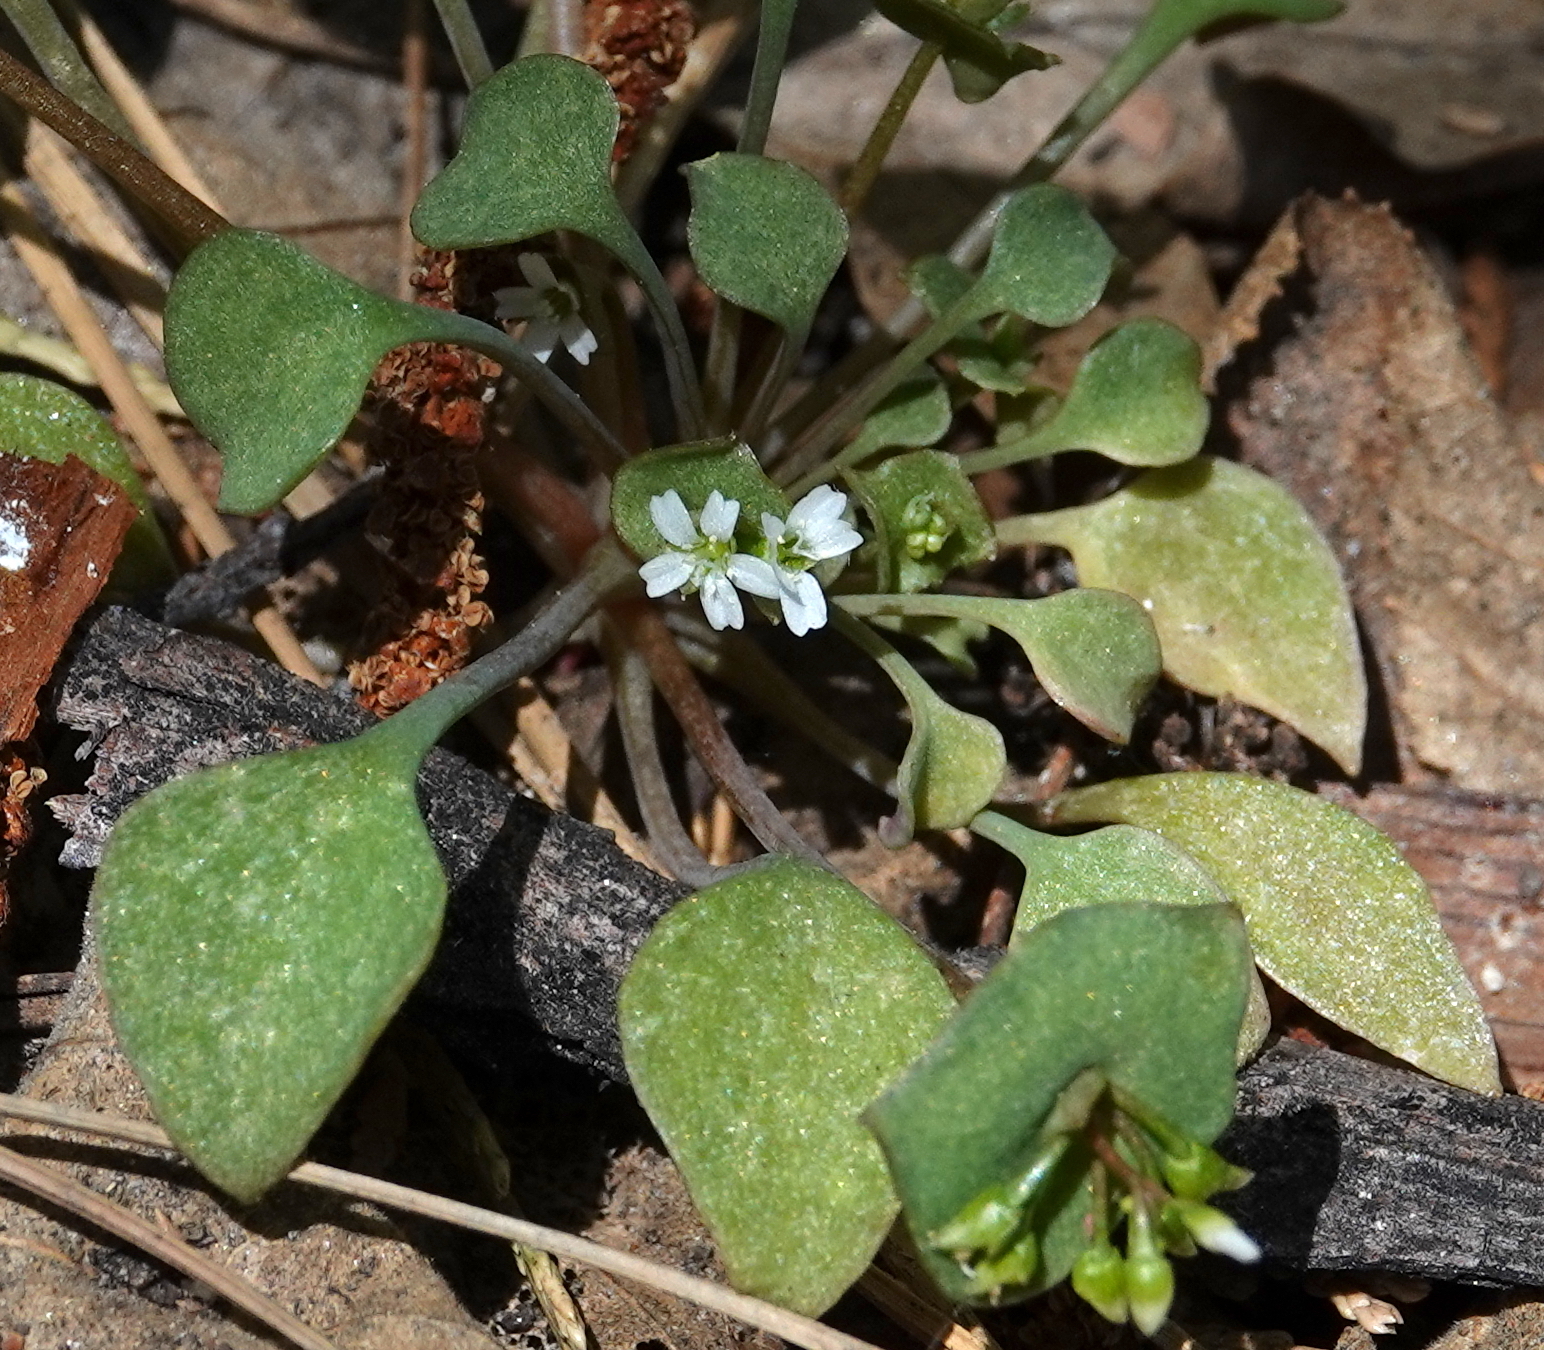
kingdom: Plantae
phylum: Tracheophyta
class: Magnoliopsida
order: Caryophyllales
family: Montiaceae
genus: Claytonia
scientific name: Claytonia rubra
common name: Erubescent miner's-lettuce
